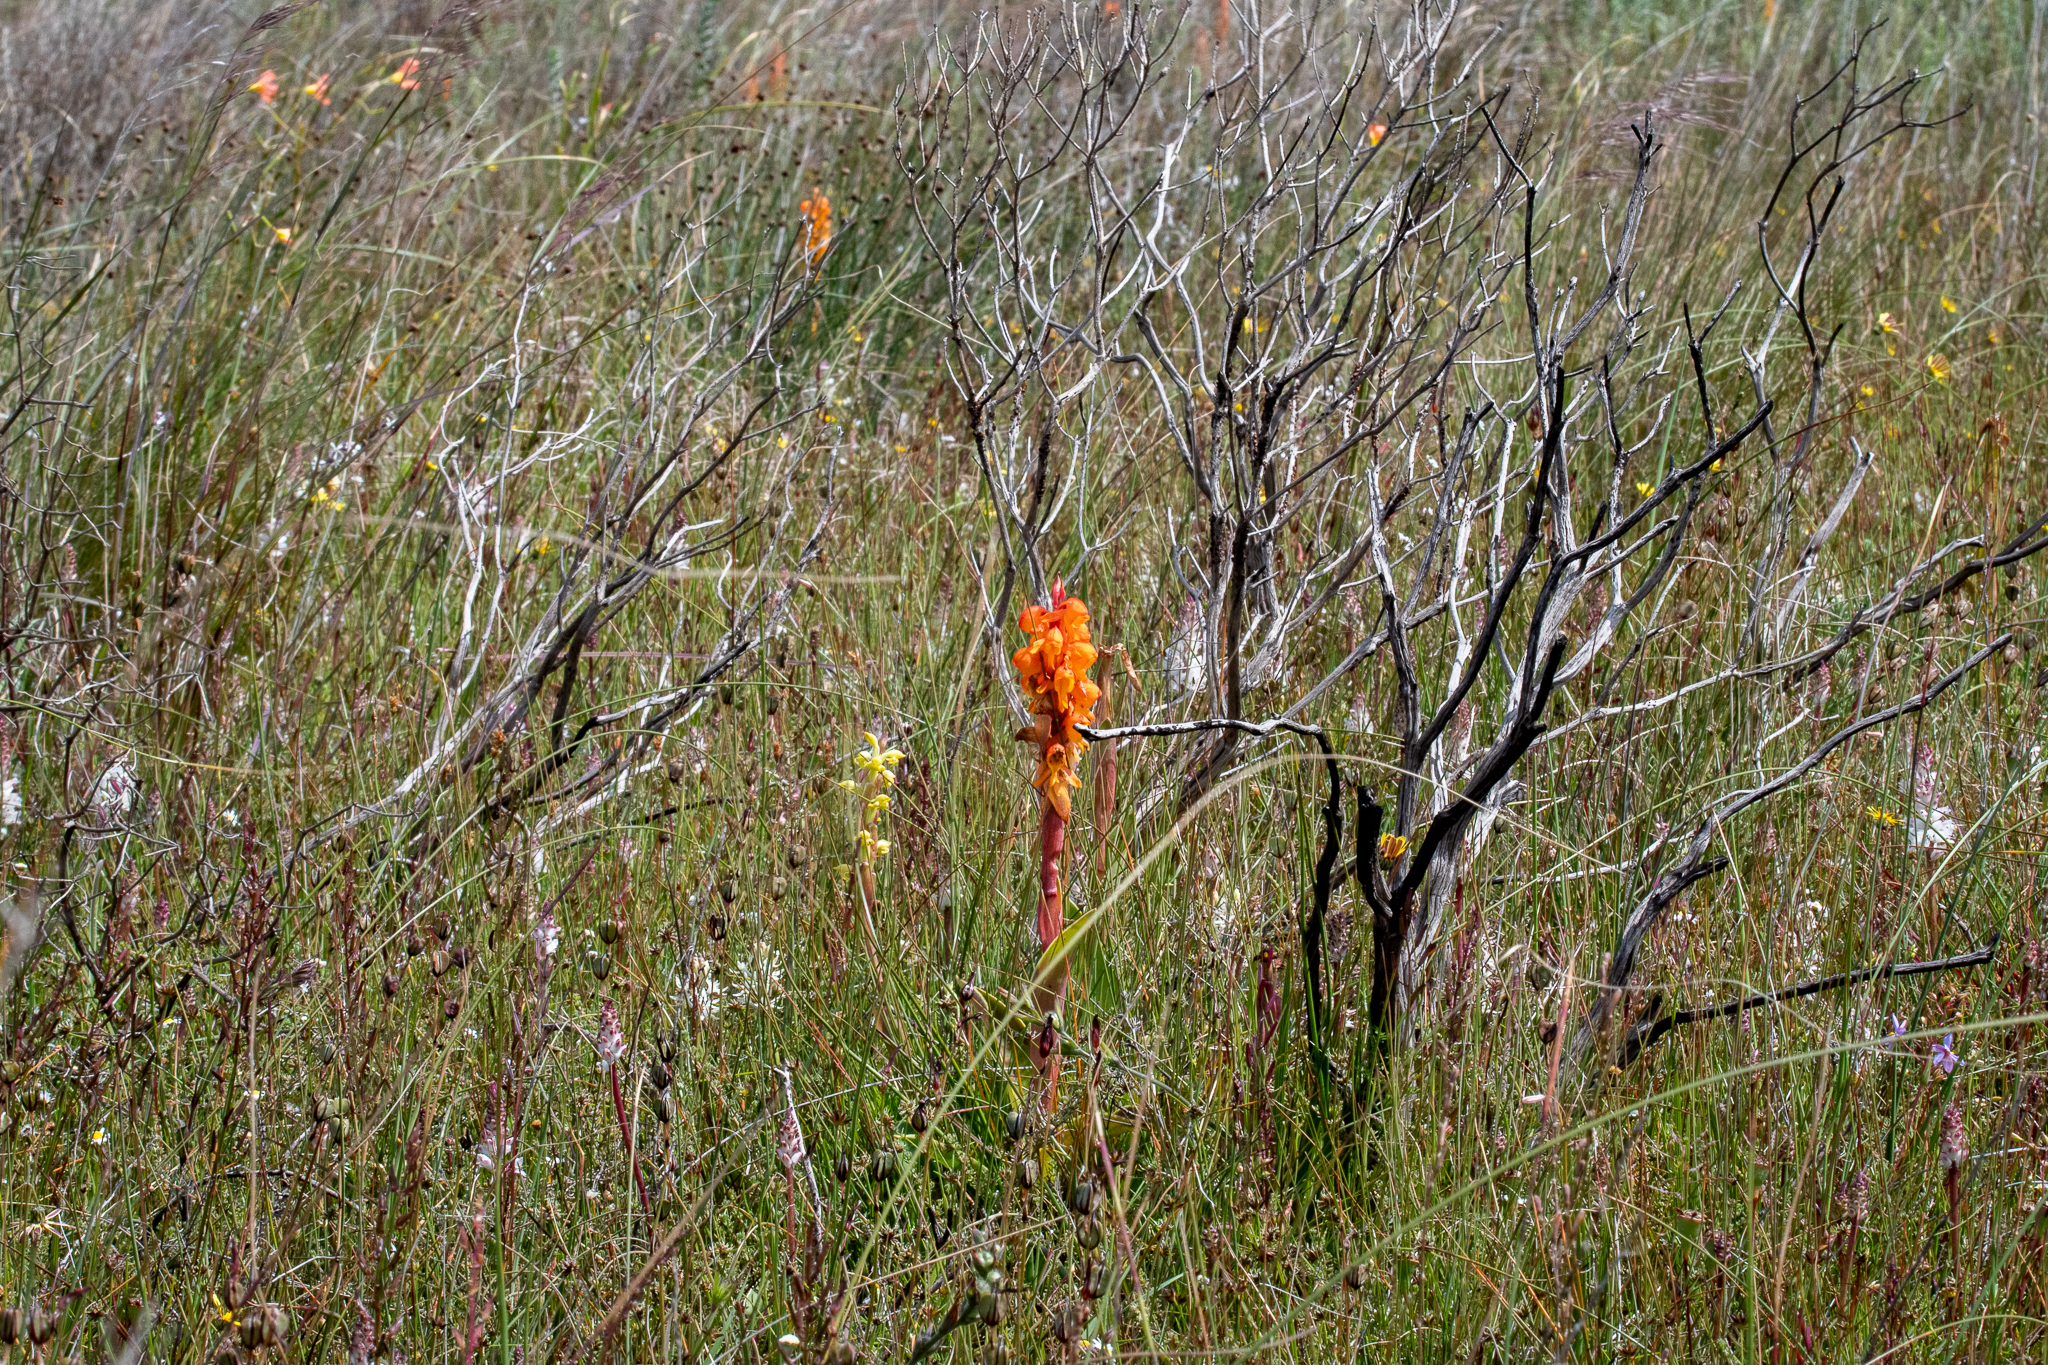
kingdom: Plantae
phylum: Tracheophyta
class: Liliopsida
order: Asparagales
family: Orchidaceae
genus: Satyrium
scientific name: Satyrium coriifolium
